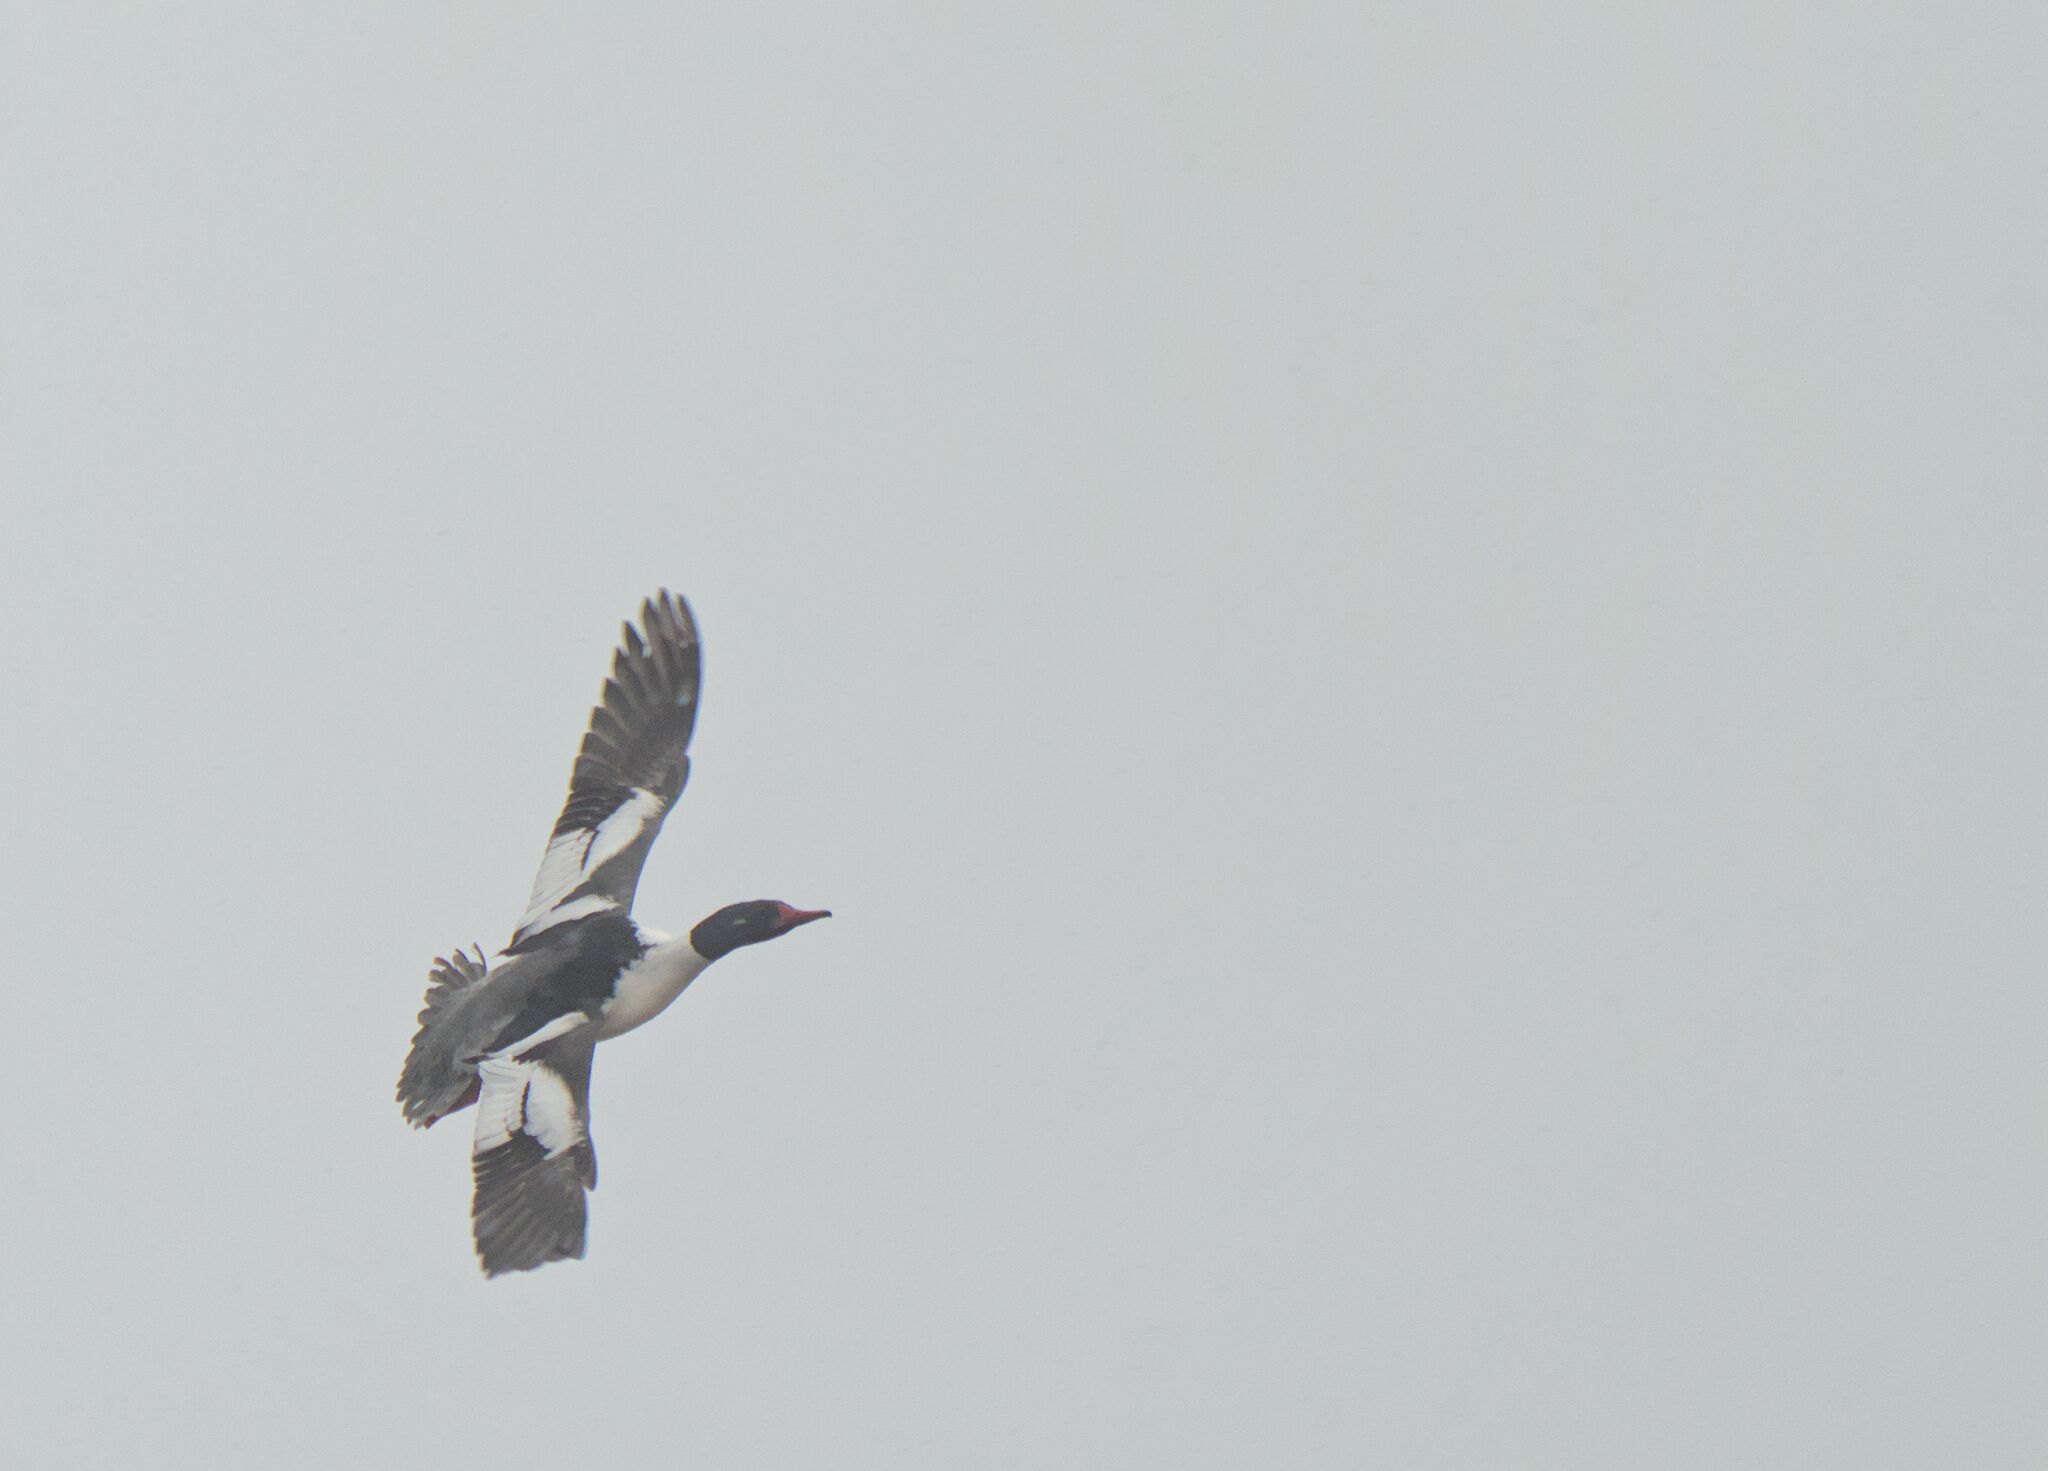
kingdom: Animalia
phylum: Chordata
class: Aves
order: Anseriformes
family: Anatidae
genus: Mergus
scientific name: Mergus merganser
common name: Common merganser
